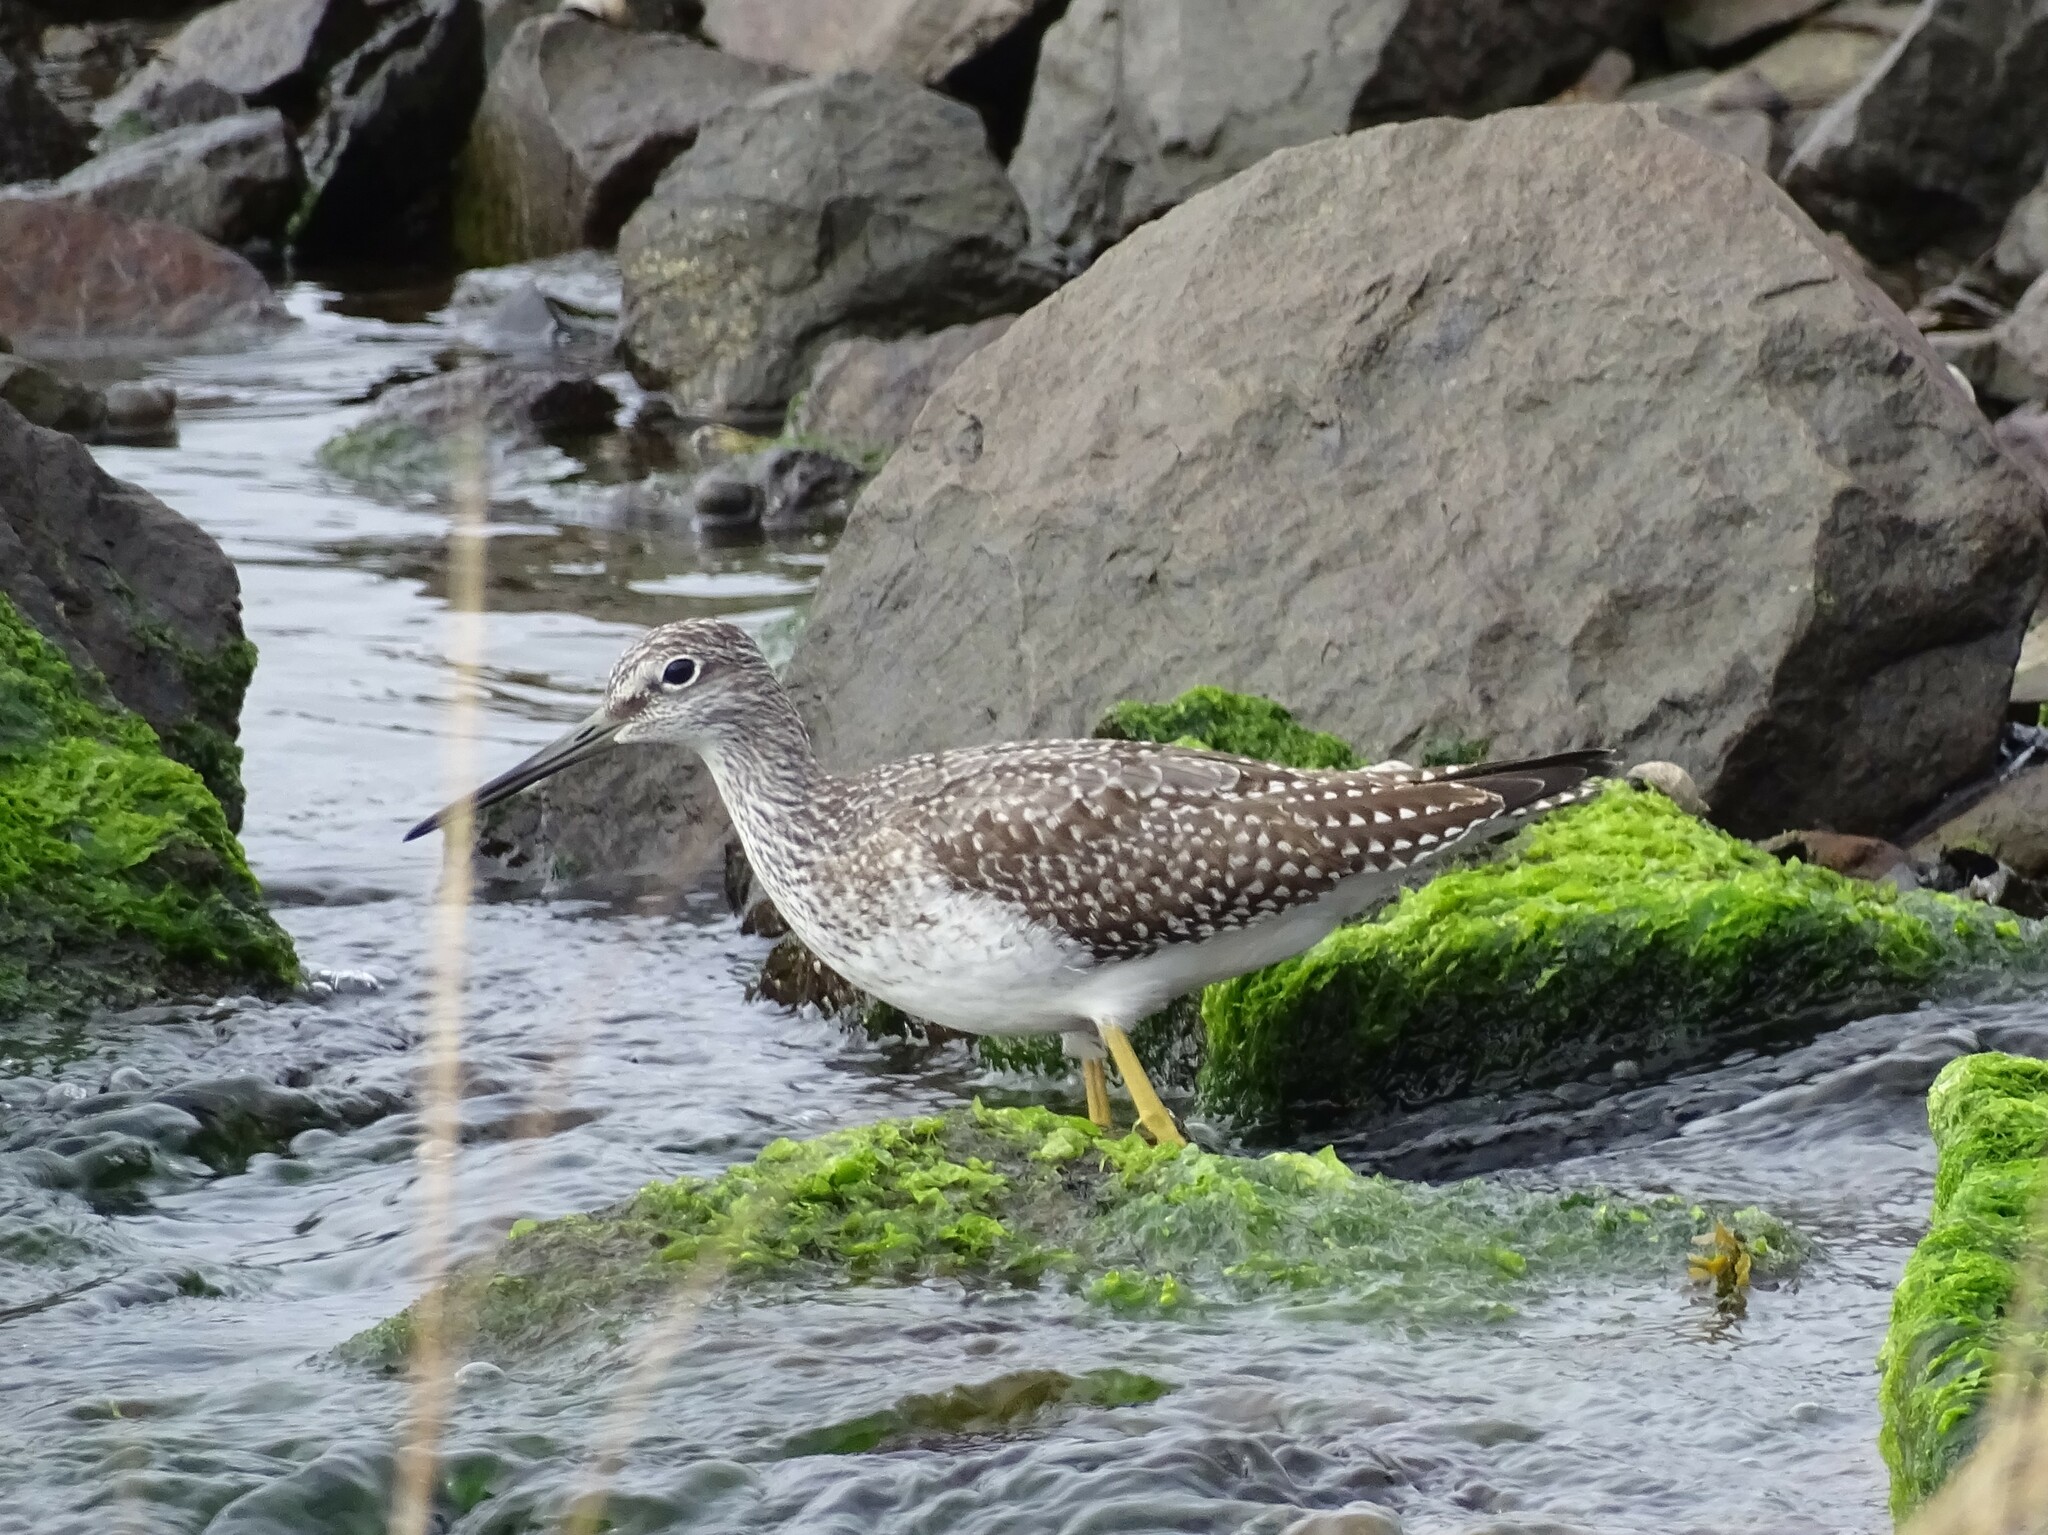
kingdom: Animalia
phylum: Chordata
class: Aves
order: Charadriiformes
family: Scolopacidae
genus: Tringa
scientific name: Tringa melanoleuca
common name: Greater yellowlegs
